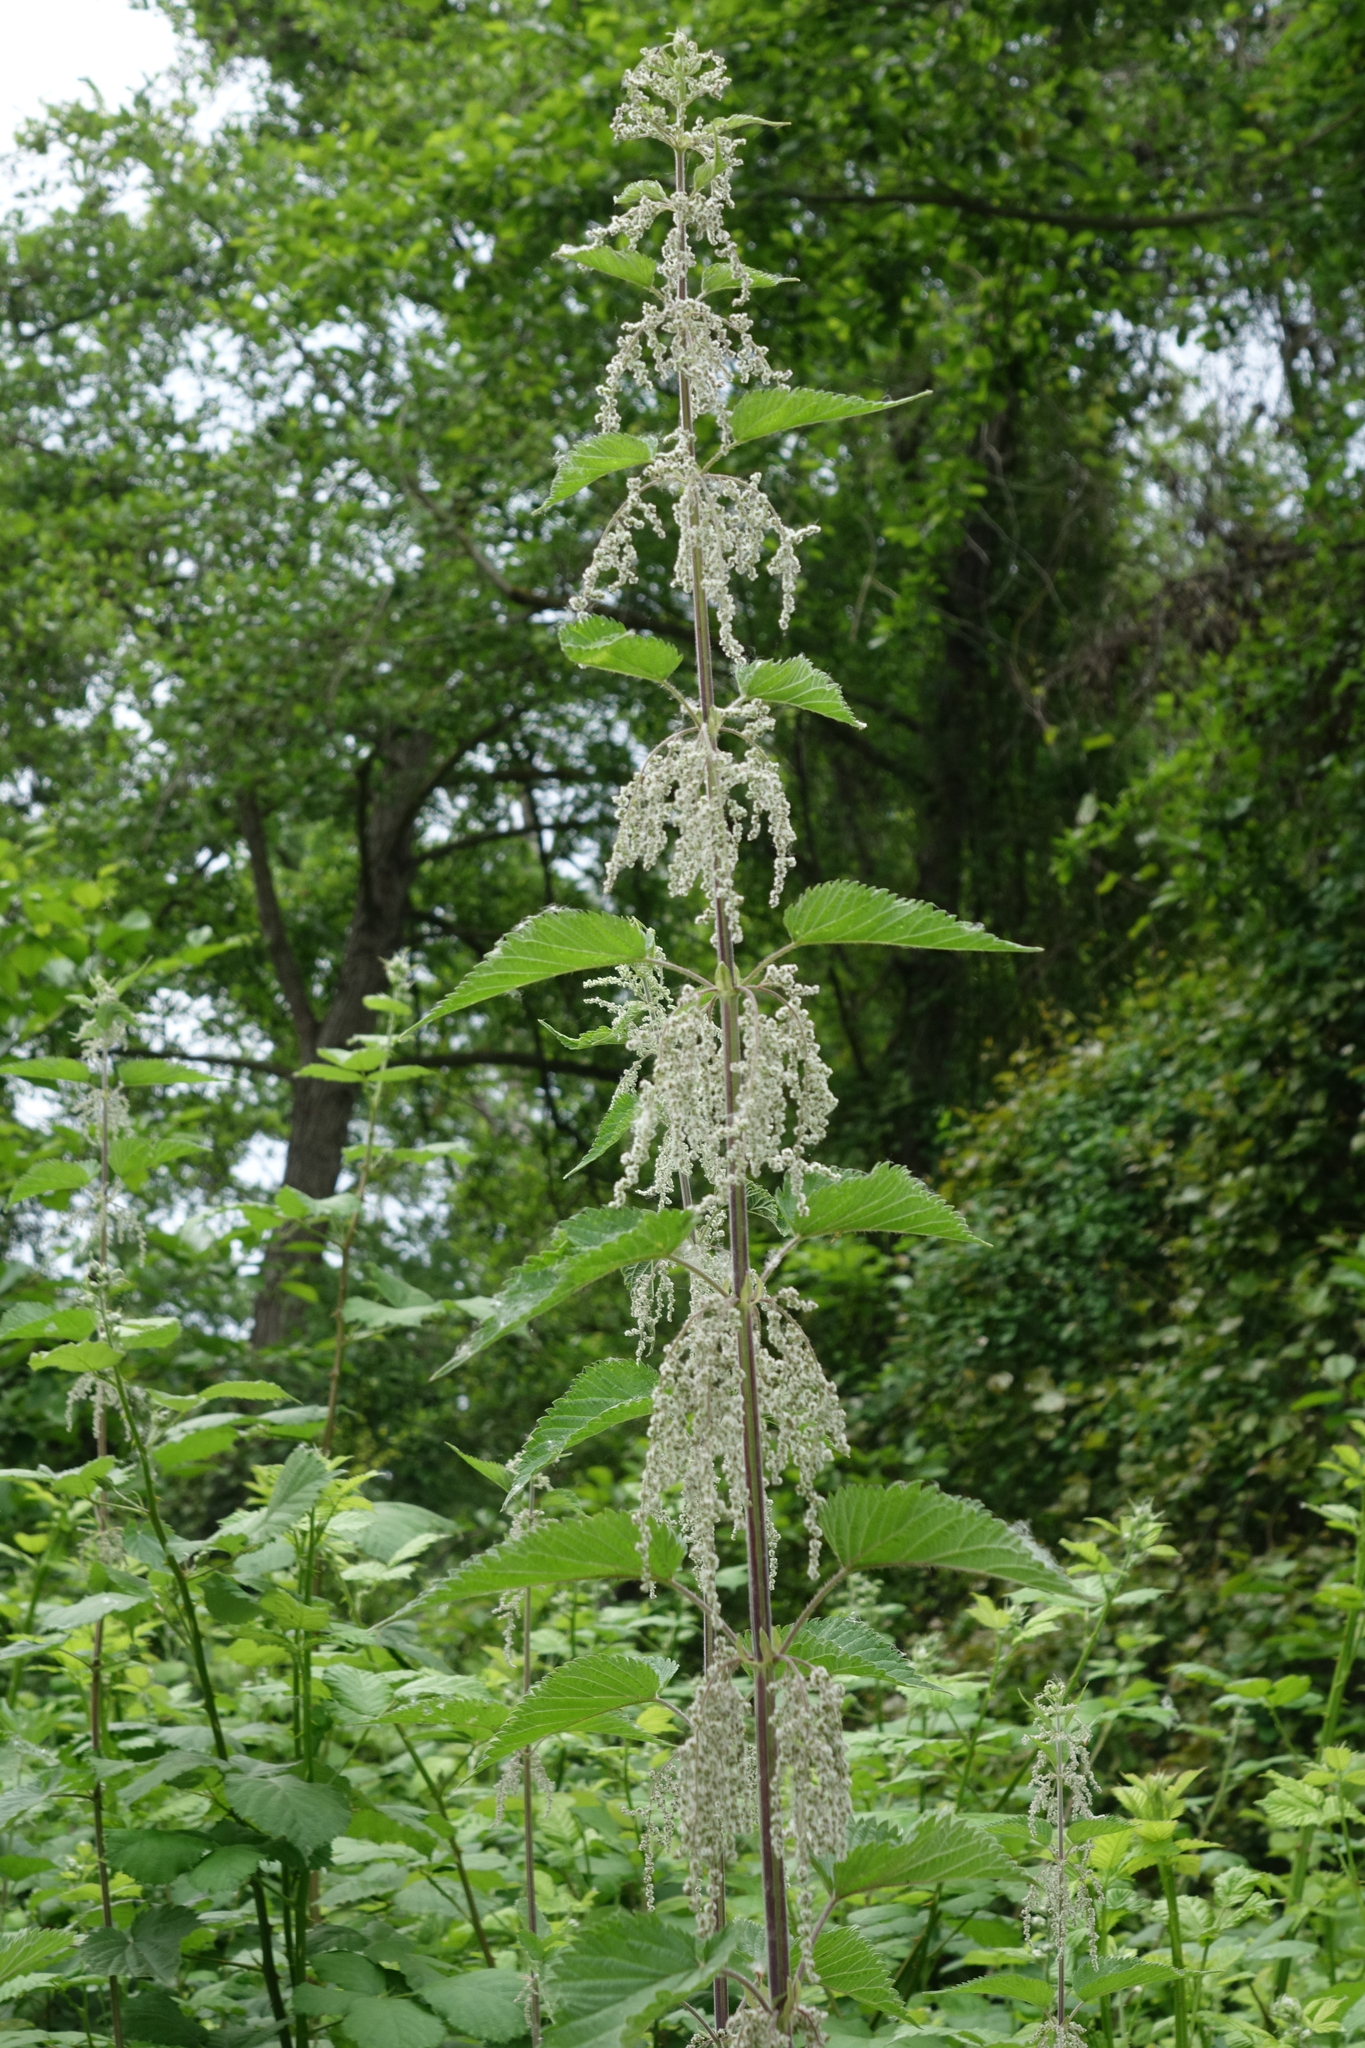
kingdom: Plantae
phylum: Tracheophyta
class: Magnoliopsida
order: Rosales
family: Urticaceae
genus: Urtica
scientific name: Urtica dioica
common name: Common nettle
